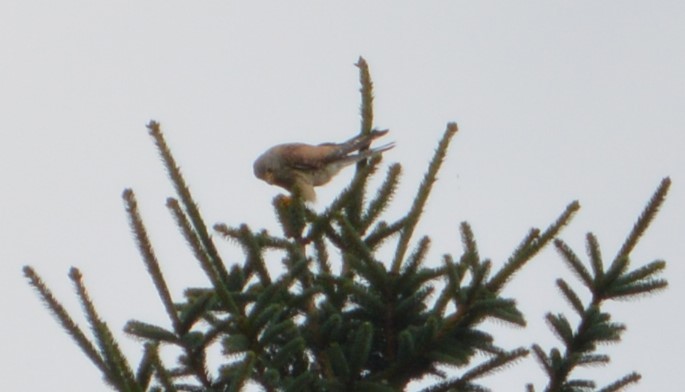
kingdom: Animalia
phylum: Chordata
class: Aves
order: Falconiformes
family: Falconidae
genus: Falco
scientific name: Falco tinnunculus
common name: Common kestrel
